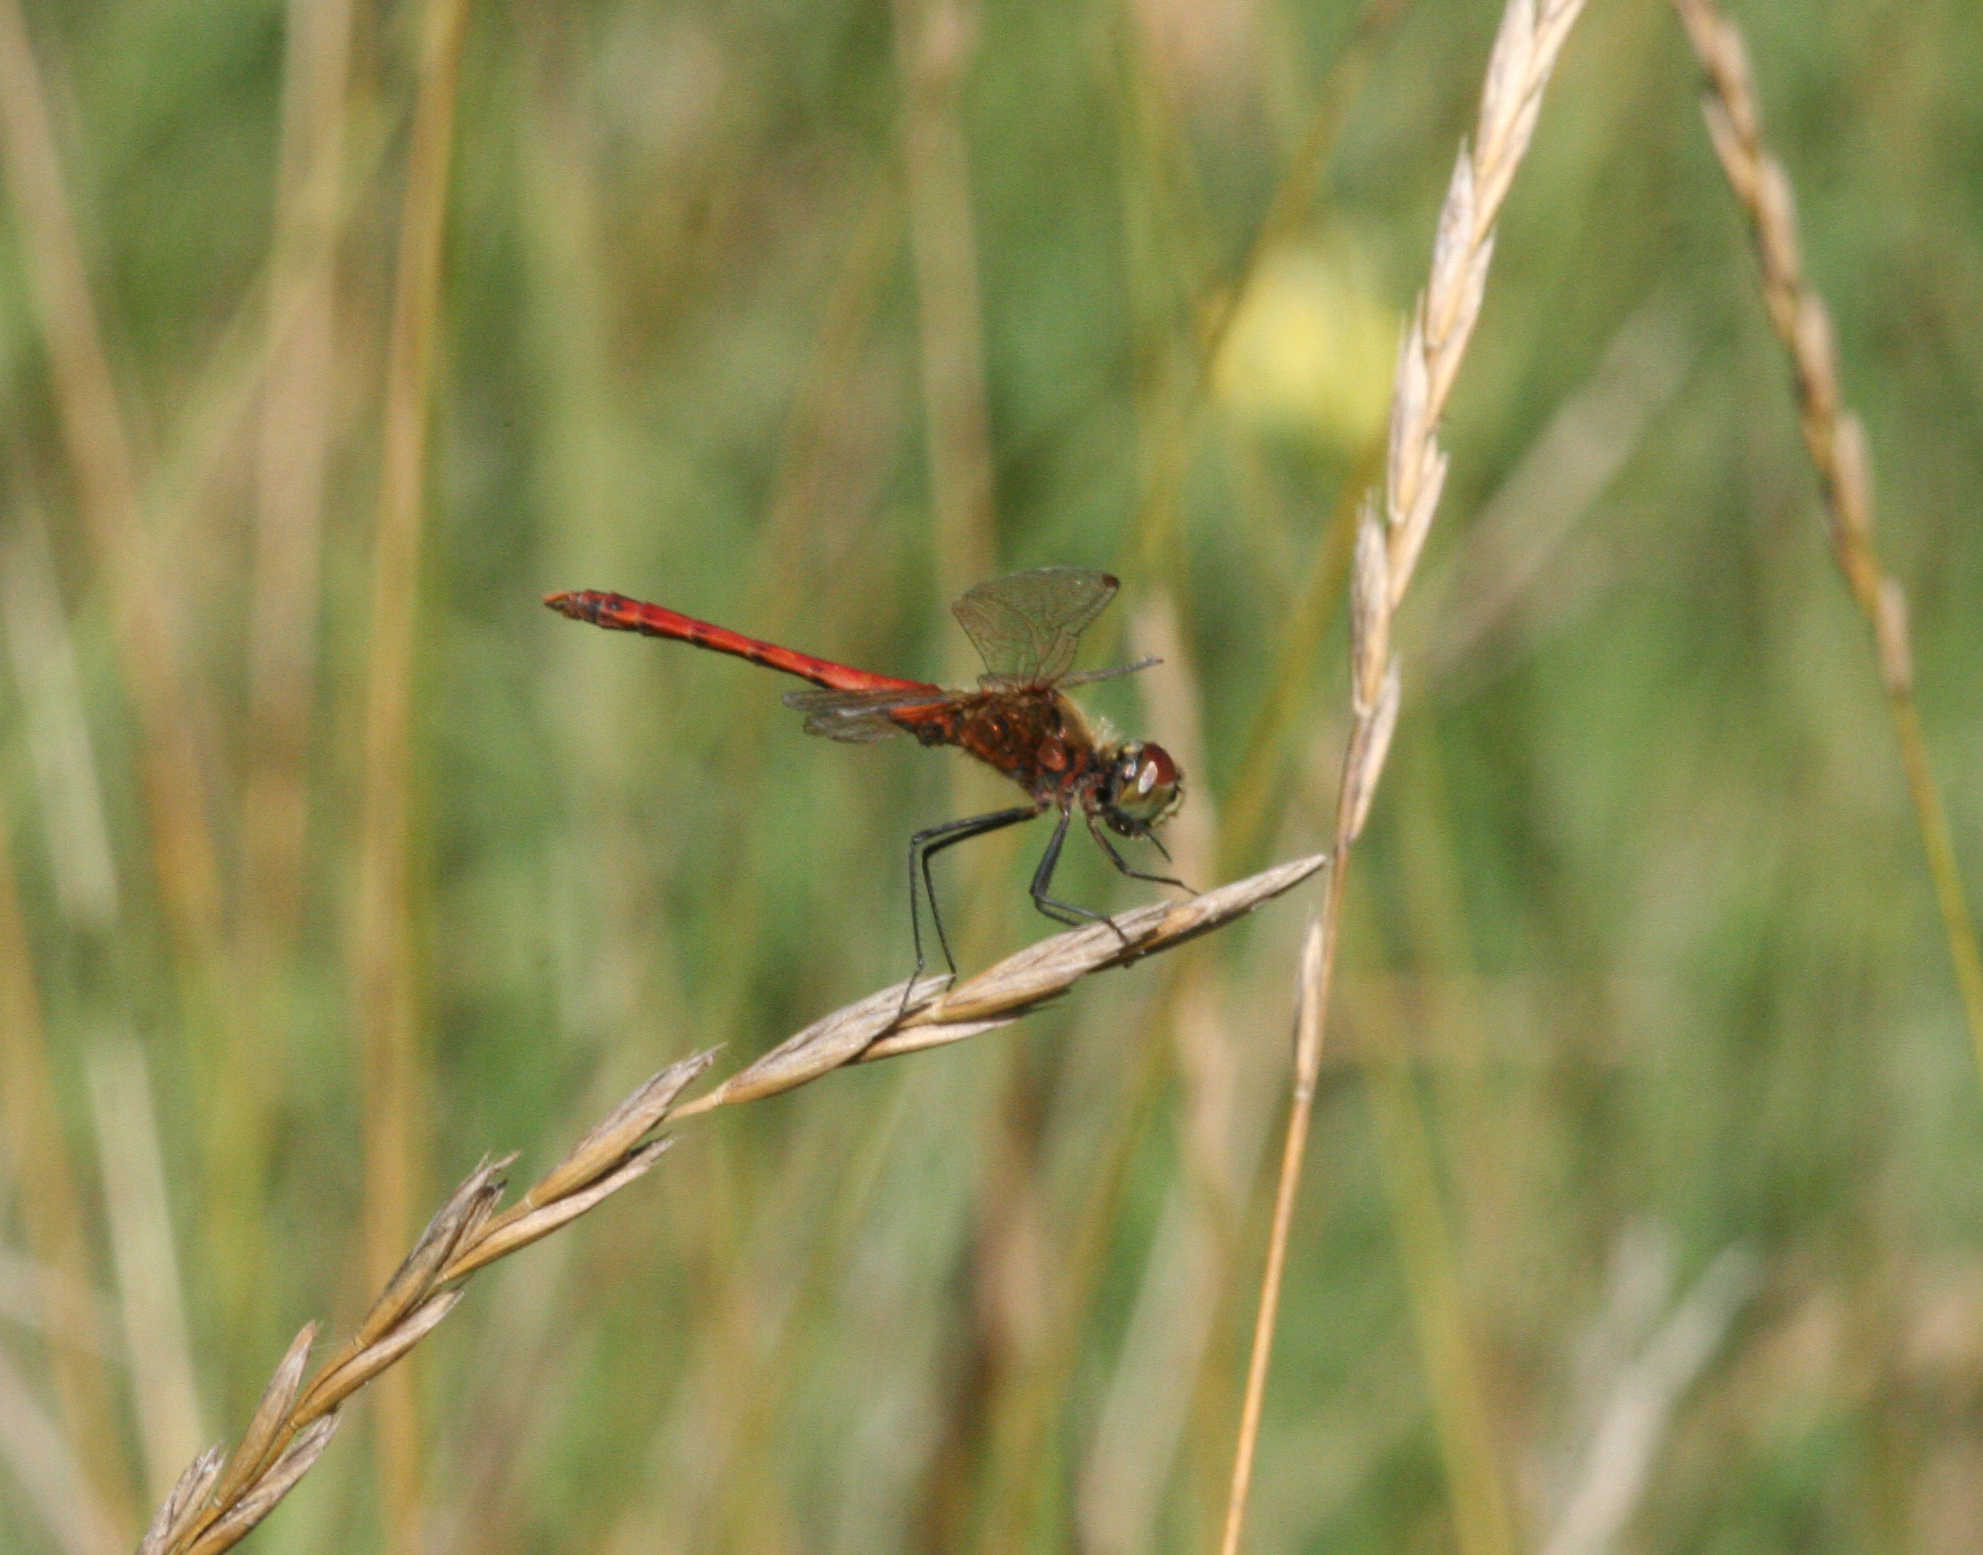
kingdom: Animalia
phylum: Arthropoda
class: Insecta
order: Odonata
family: Libellulidae
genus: Sympetrum
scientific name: Sympetrum depressiusculum
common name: Spotted darter
